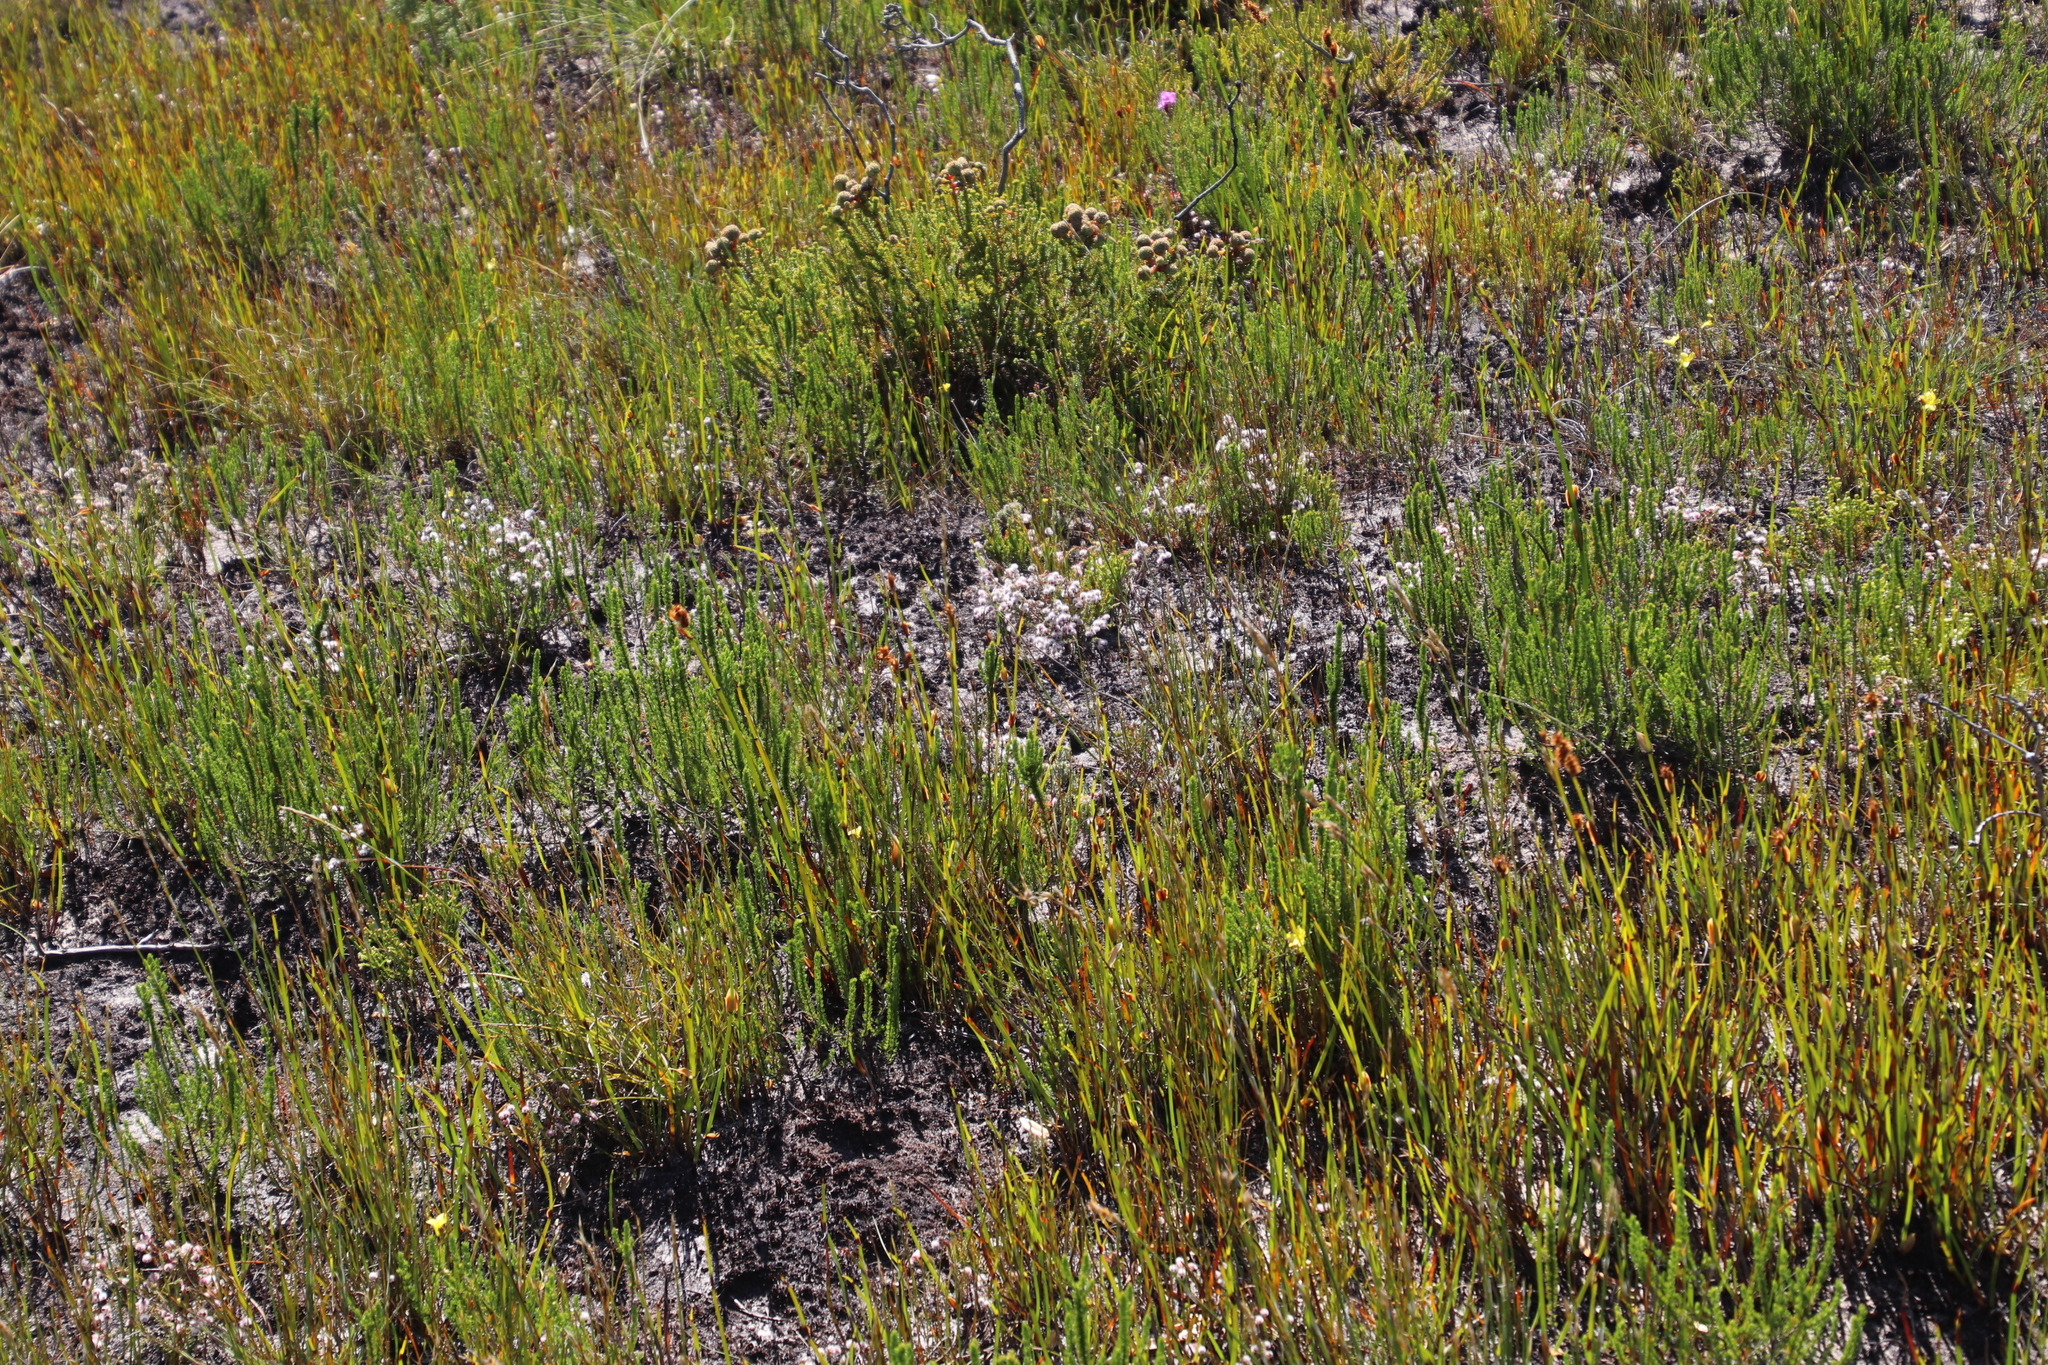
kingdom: Plantae
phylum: Tracheophyta
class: Magnoliopsida
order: Ericales
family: Ericaceae
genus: Erica
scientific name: Erica bruniades
